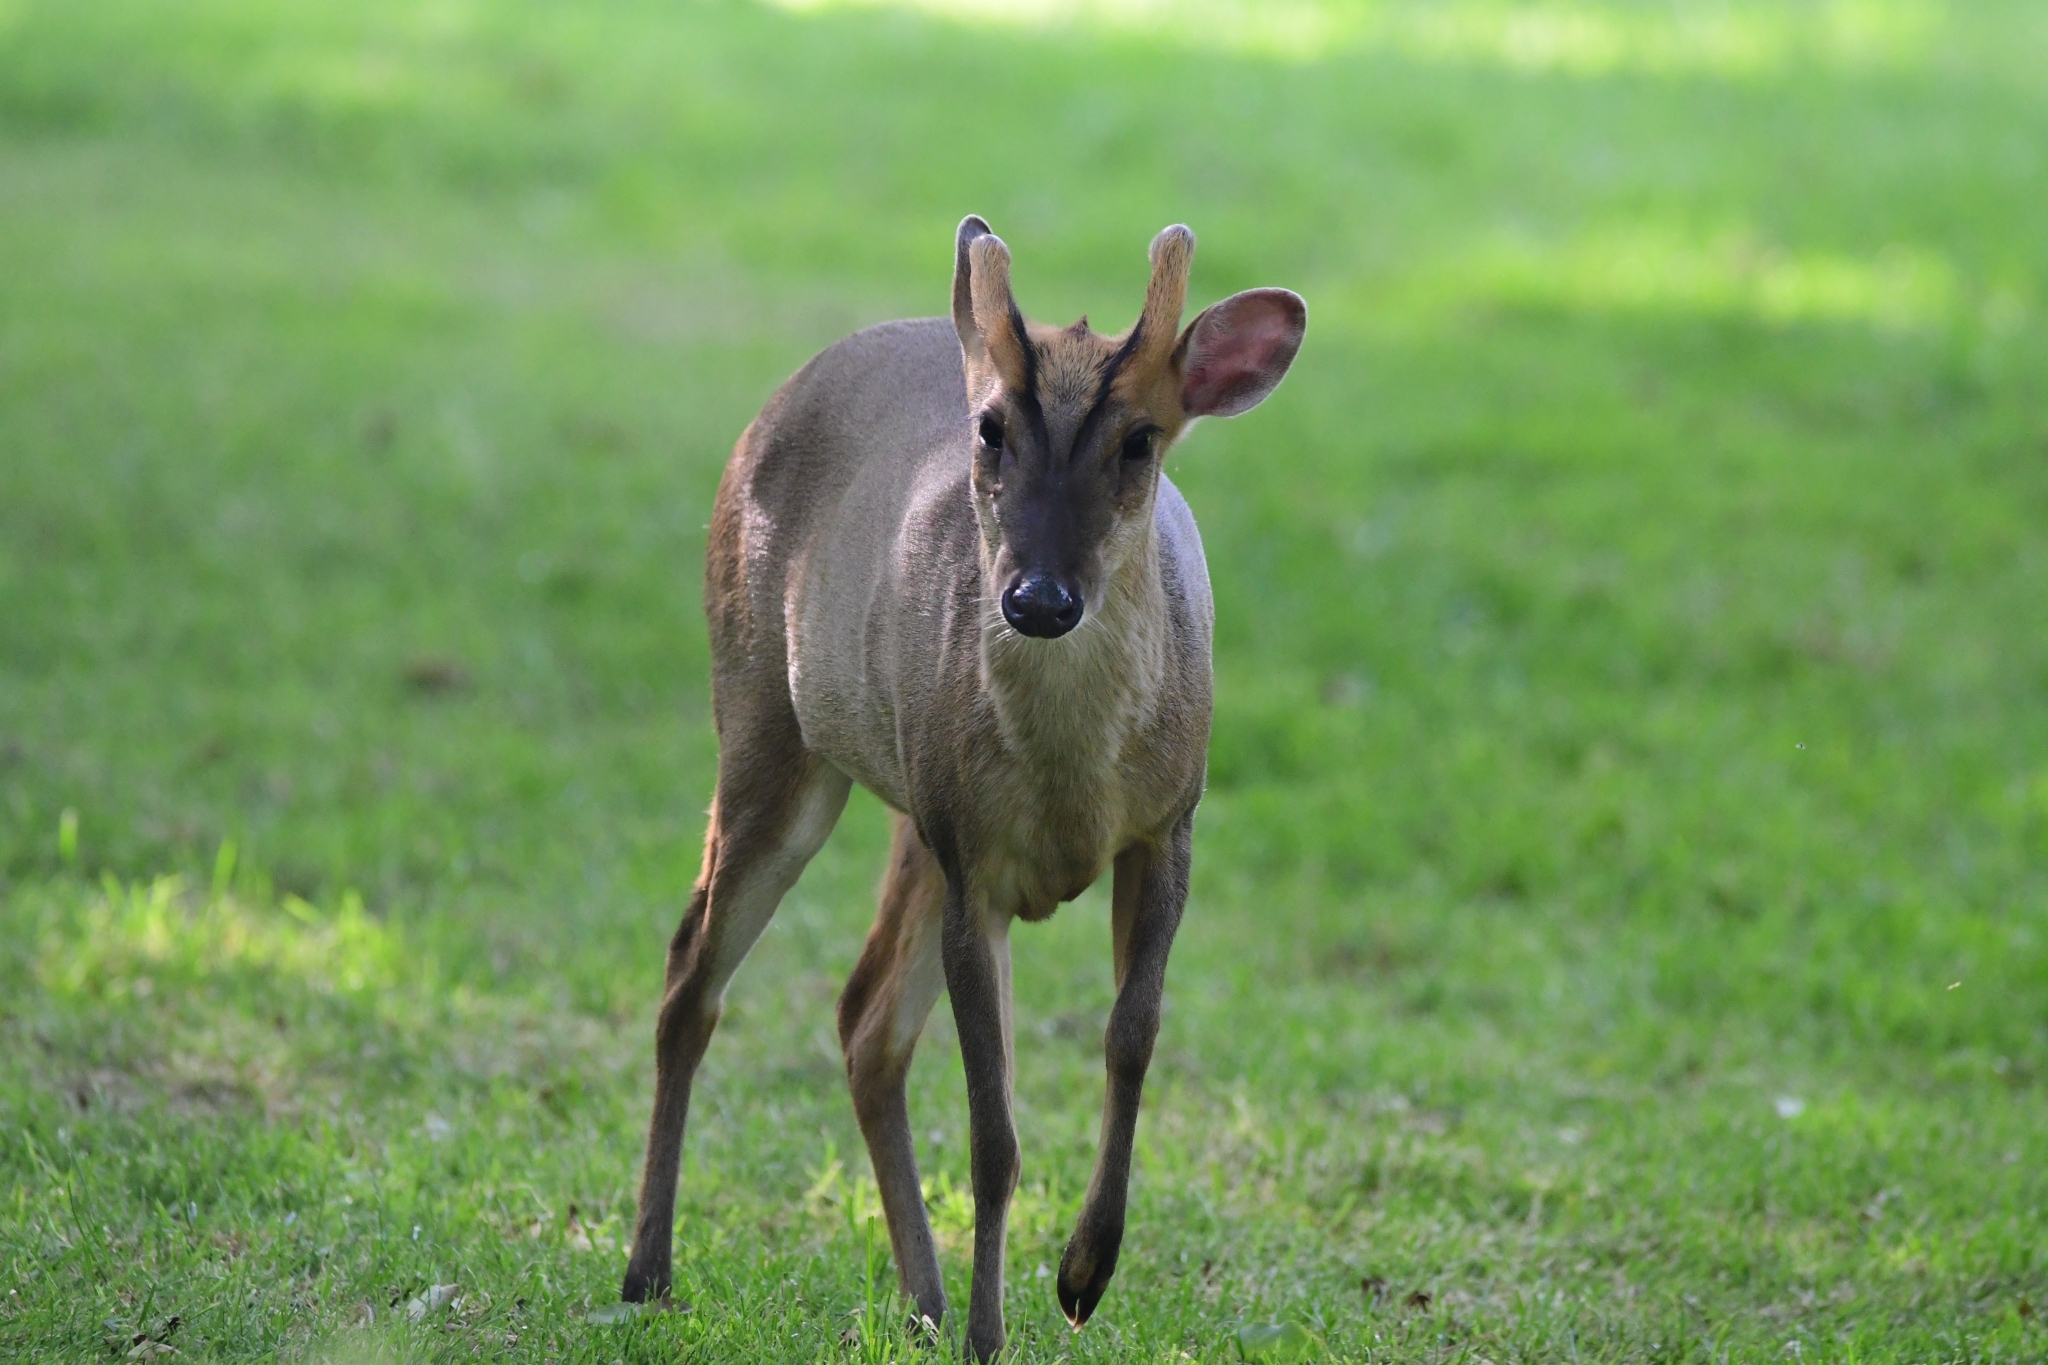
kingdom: Animalia
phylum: Chordata
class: Mammalia
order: Artiodactyla
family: Cervidae
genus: Muntiacus
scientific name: Muntiacus reevesi
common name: Reeves' muntjac
